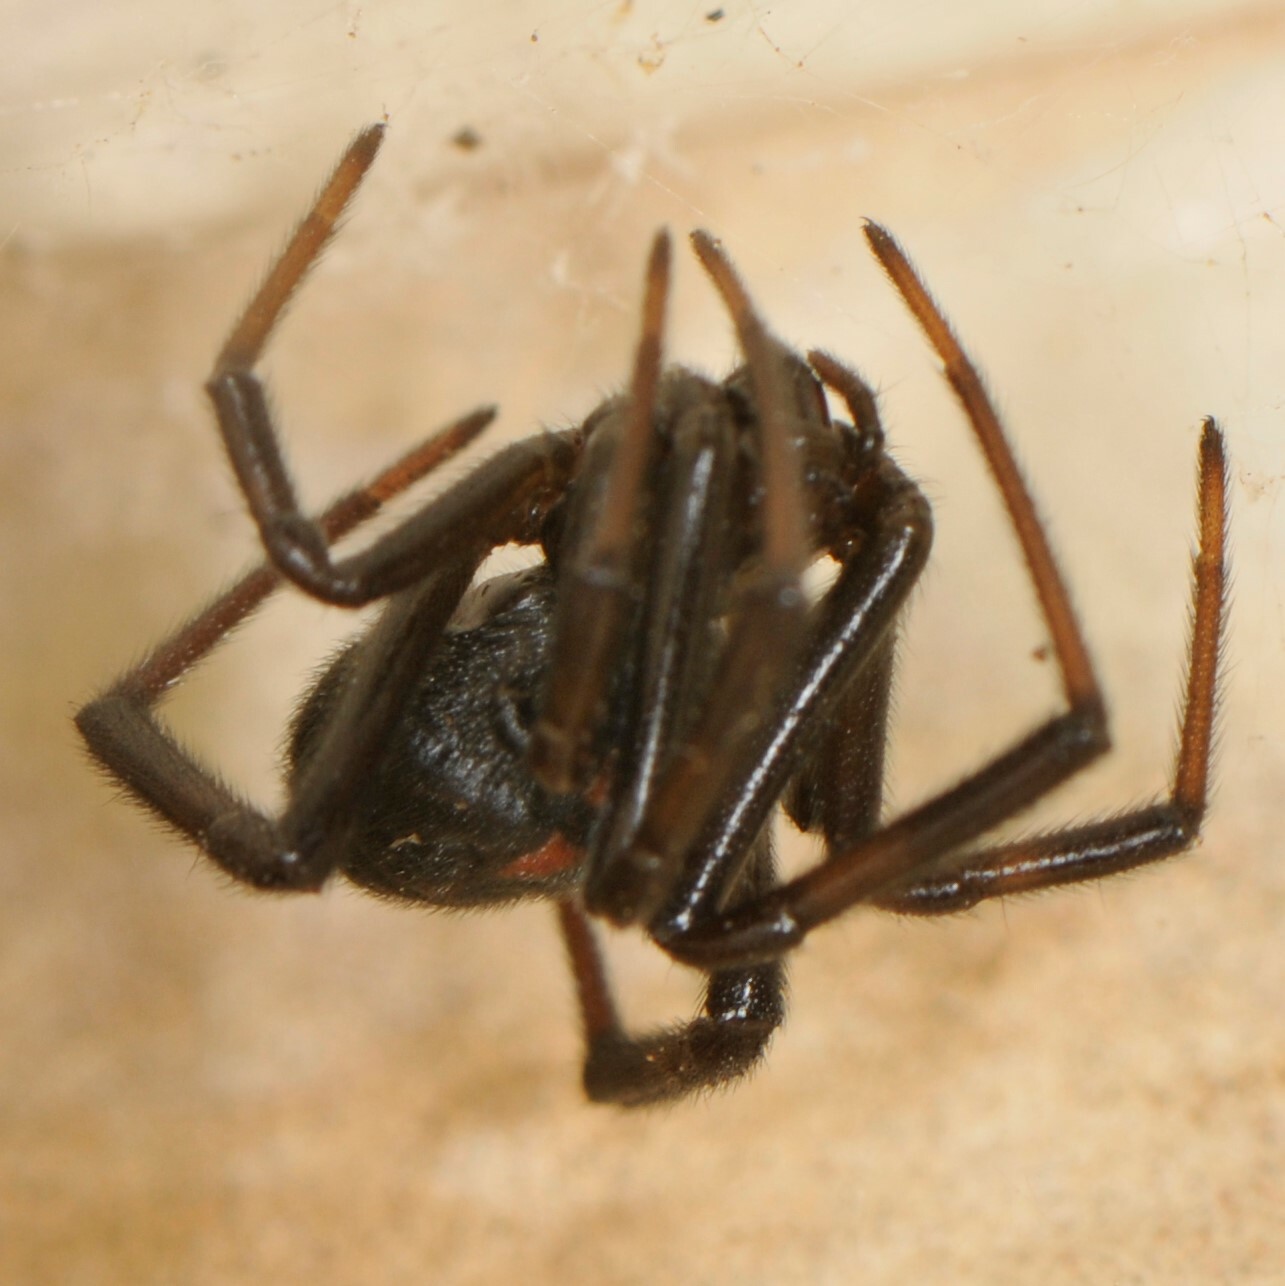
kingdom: Animalia
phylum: Arthropoda
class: Arachnida
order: Araneae
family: Theridiidae
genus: Latrodectus
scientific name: Latrodectus hesperus
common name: Western black widow
